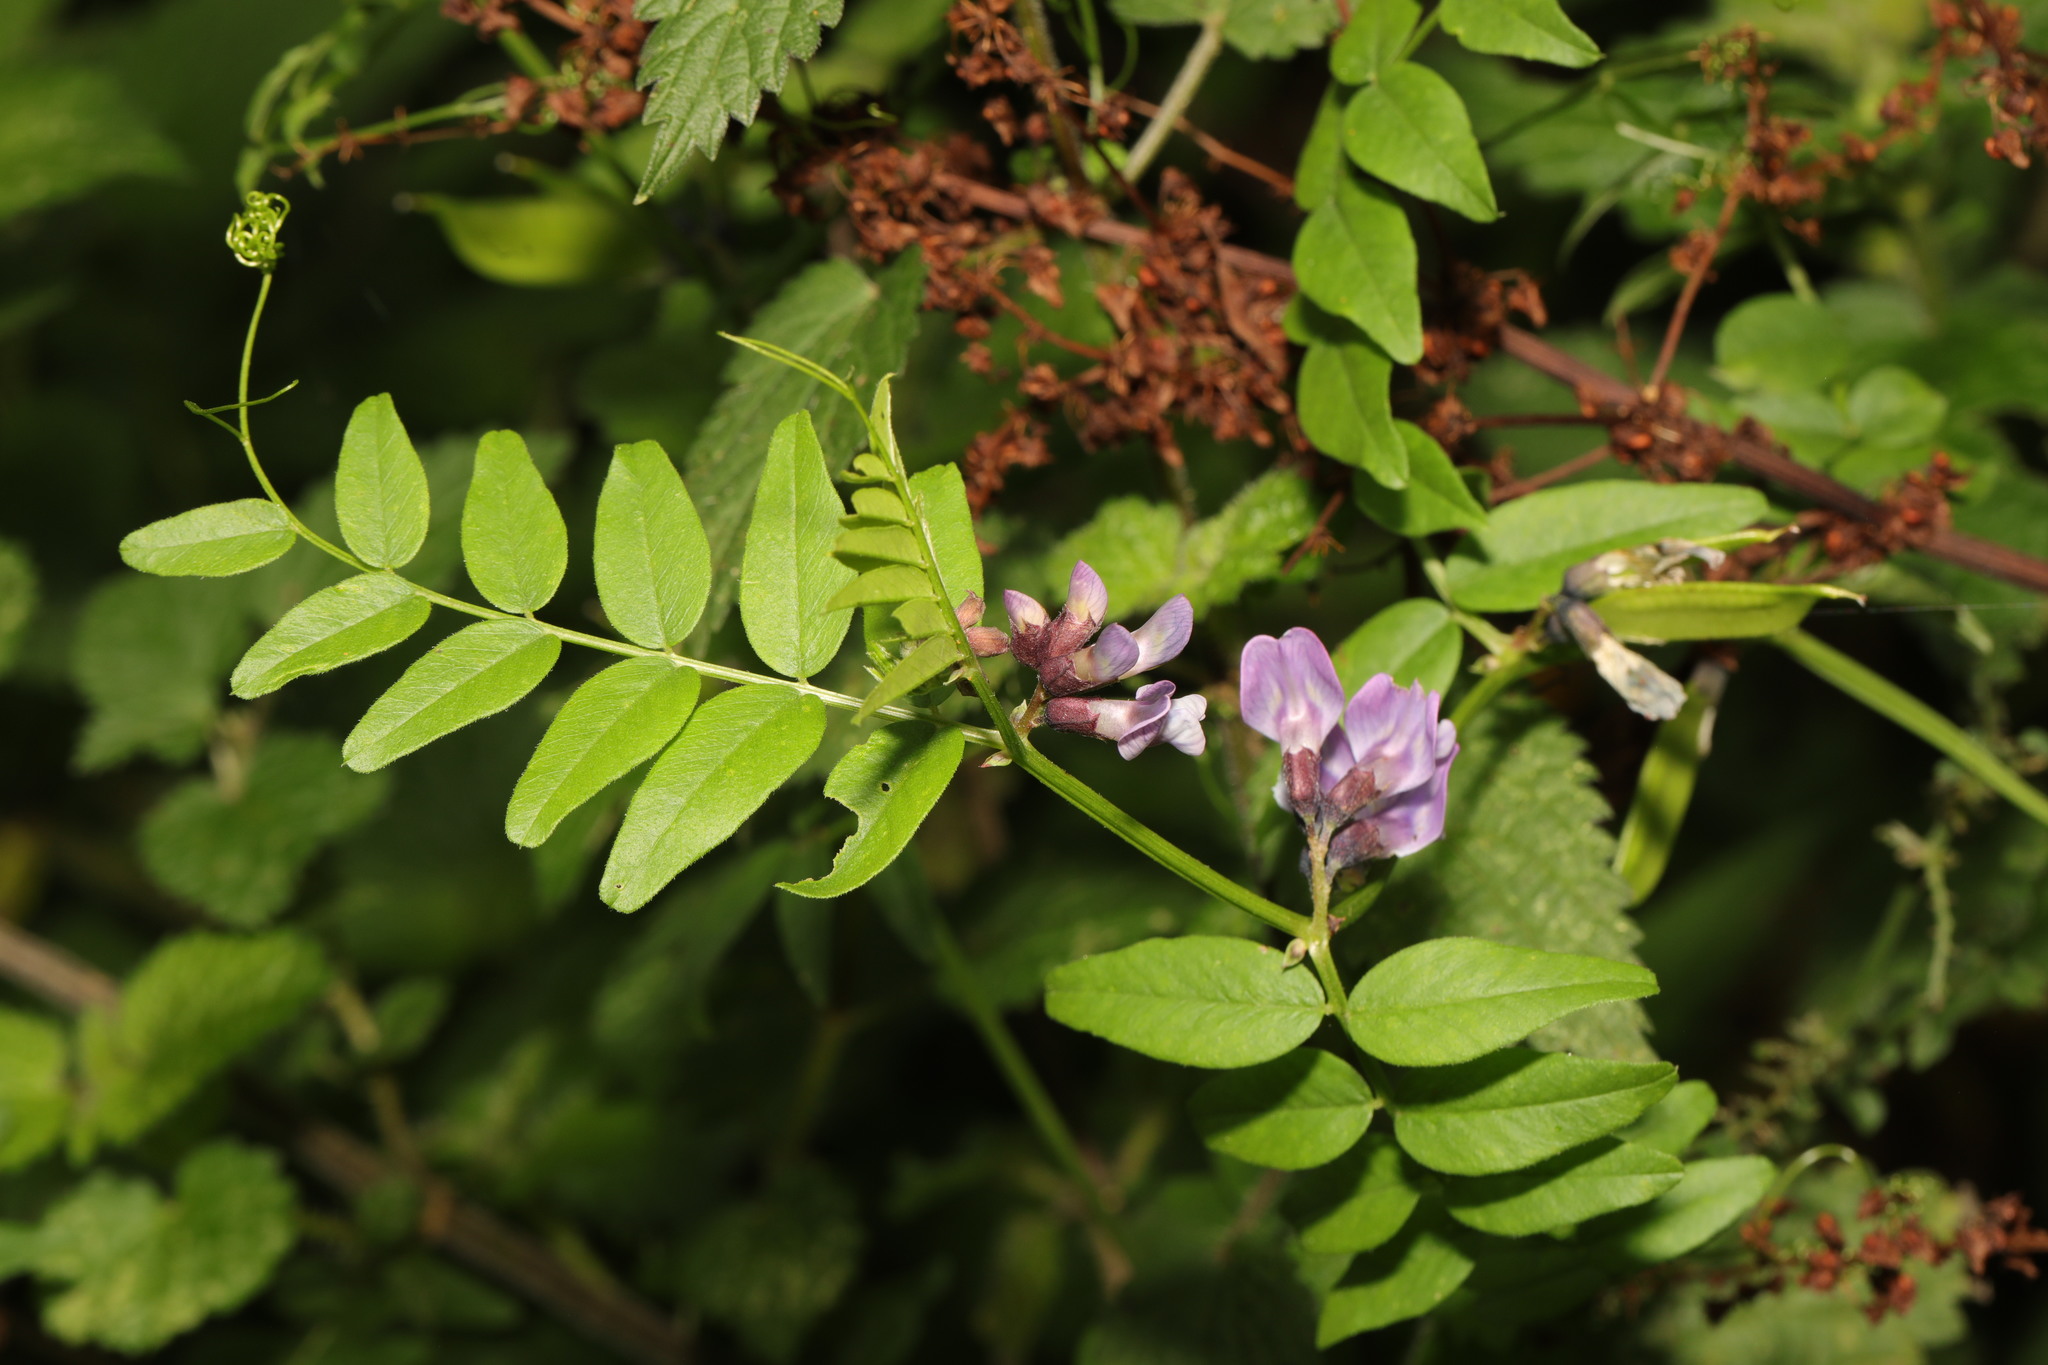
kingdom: Plantae
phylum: Tracheophyta
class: Magnoliopsida
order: Fabales
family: Fabaceae
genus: Vicia
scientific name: Vicia sepium
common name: Bush vetch
